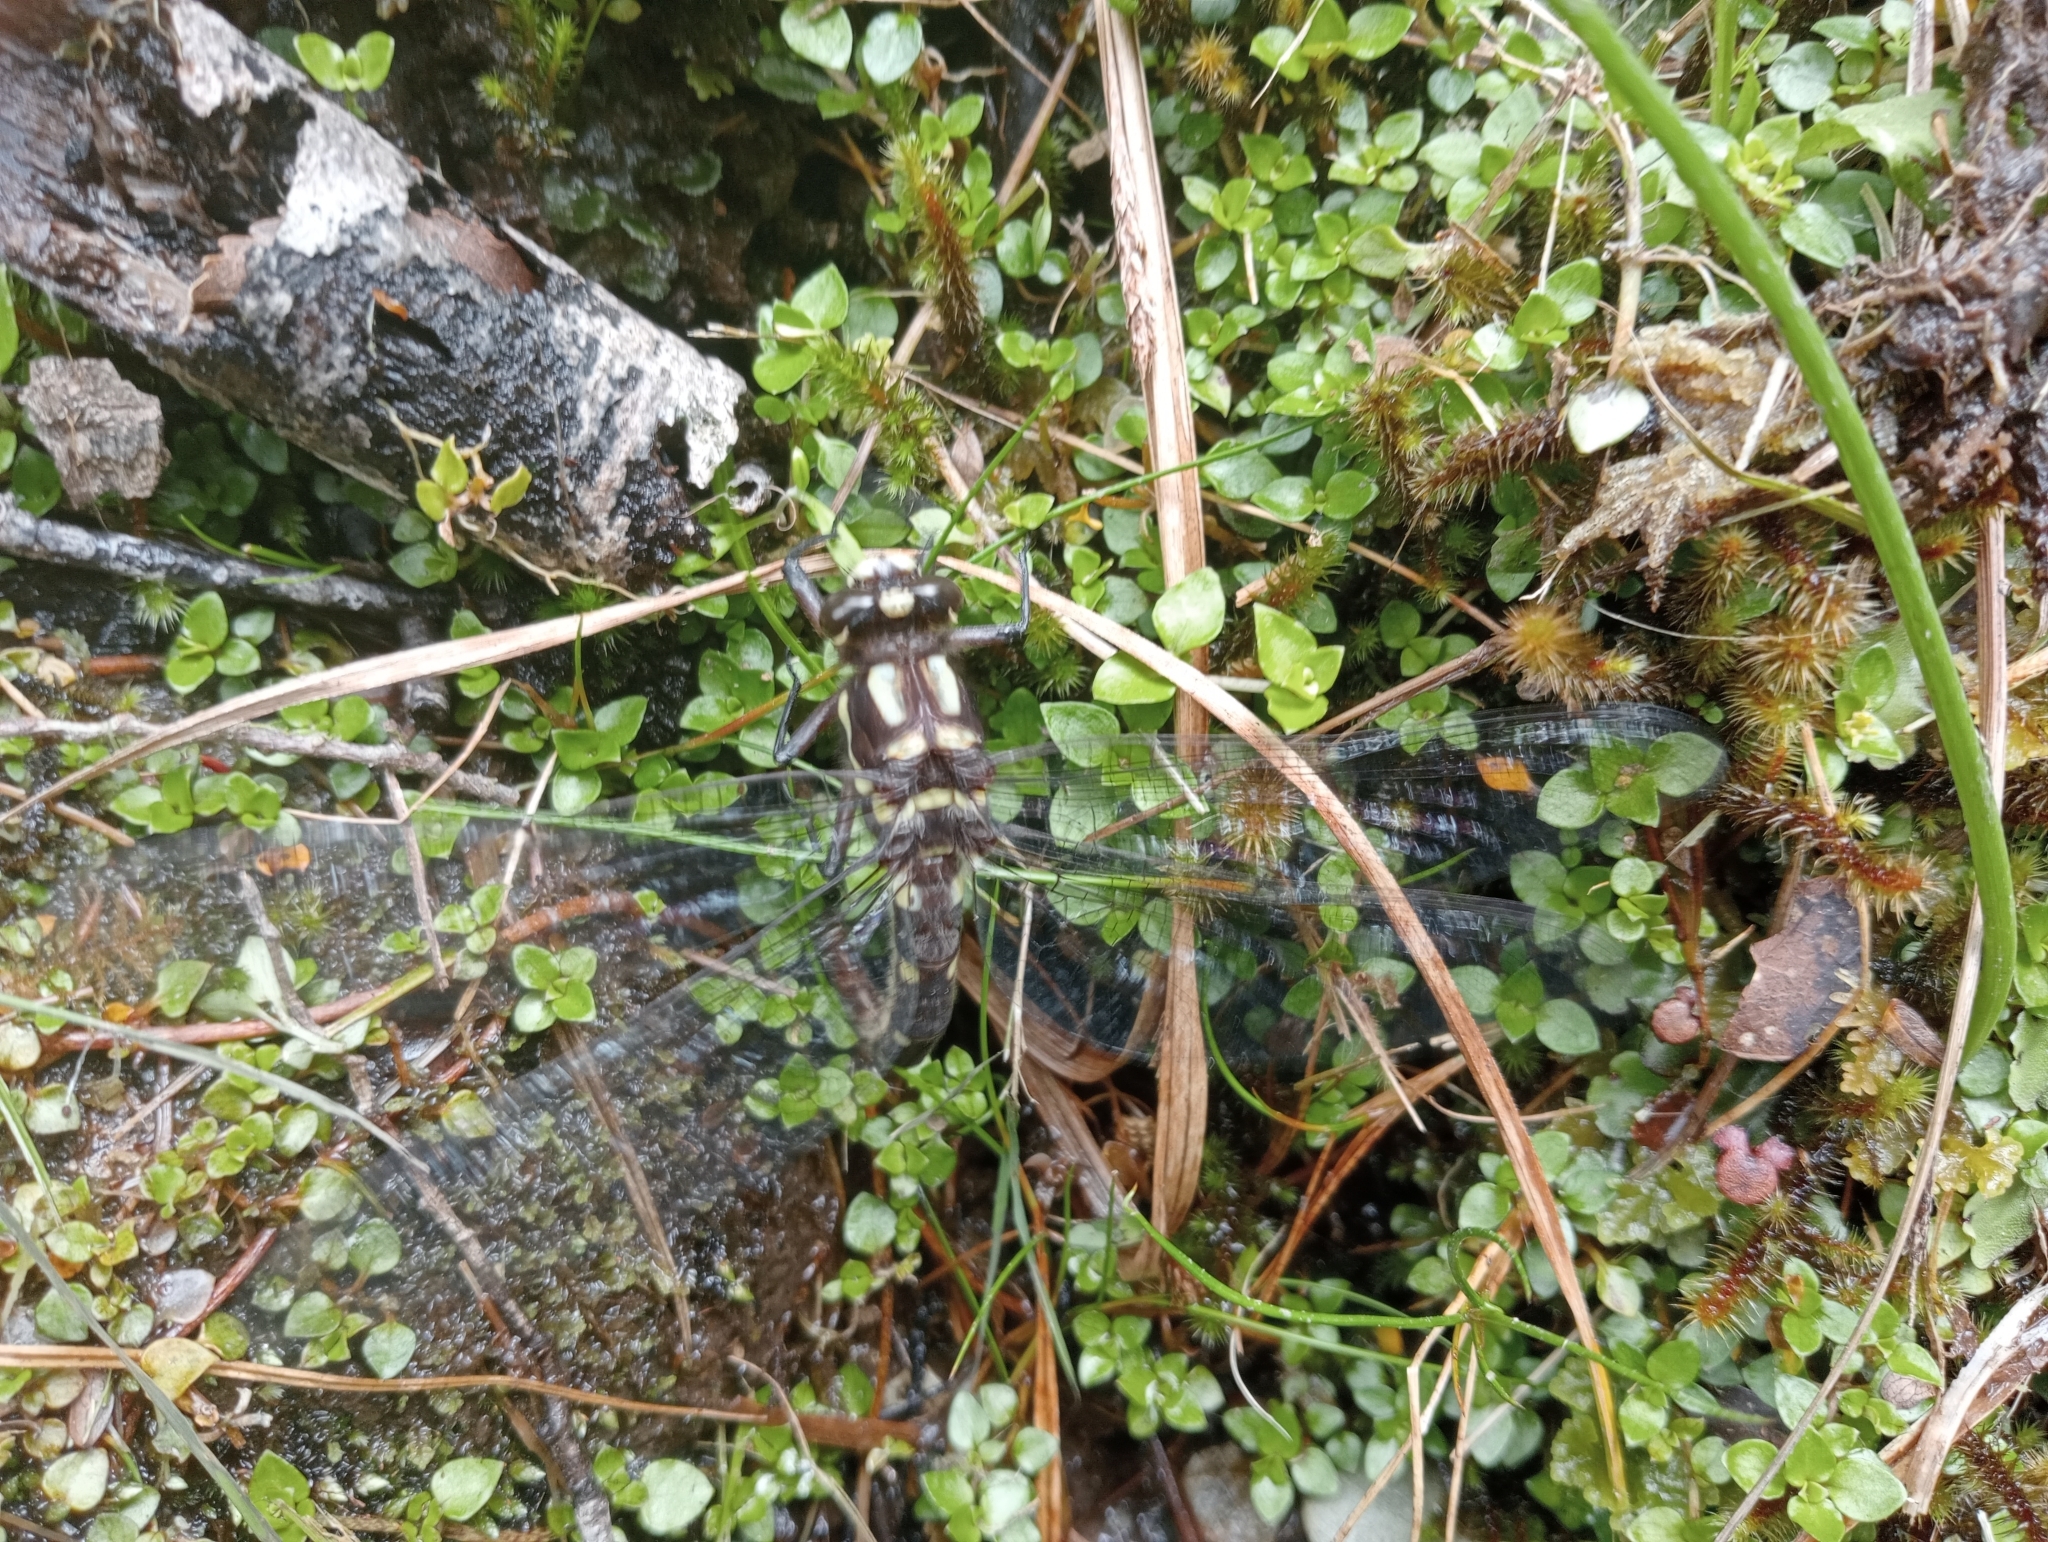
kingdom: Animalia
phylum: Arthropoda
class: Insecta
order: Odonata
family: Petaluridae
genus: Uropetala
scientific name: Uropetala carovei
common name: Bush giant dragonfly
